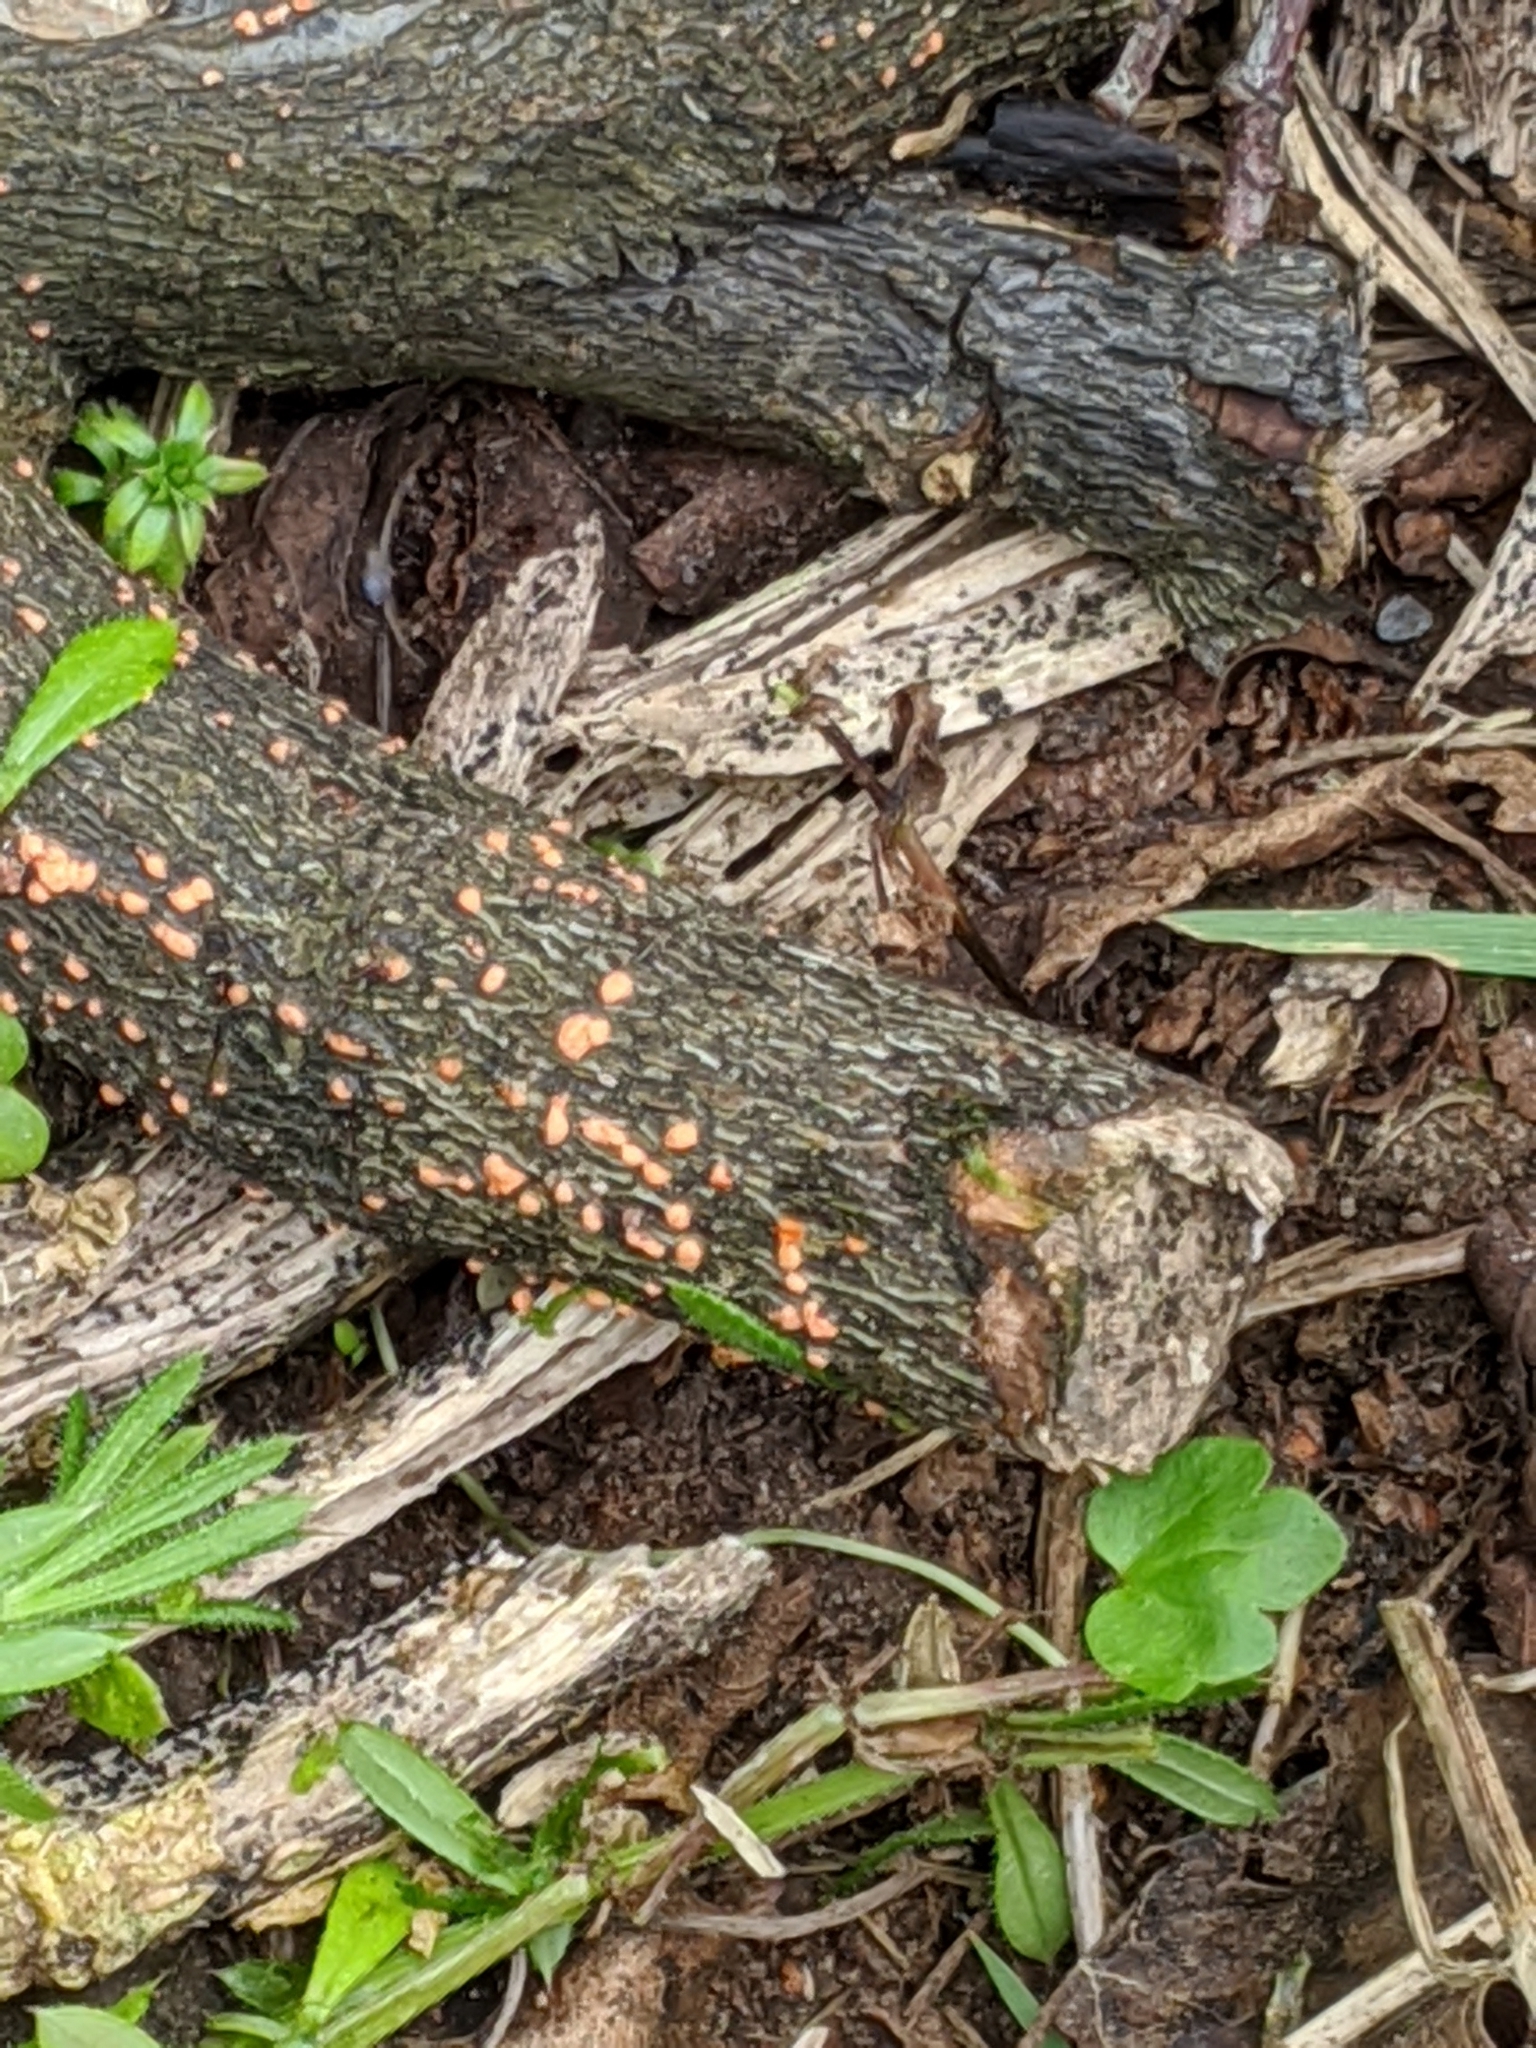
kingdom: Fungi
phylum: Ascomycota
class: Sordariomycetes
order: Hypocreales
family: Nectriaceae
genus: Nectria
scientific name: Nectria cinnabarina
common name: Coral spot
